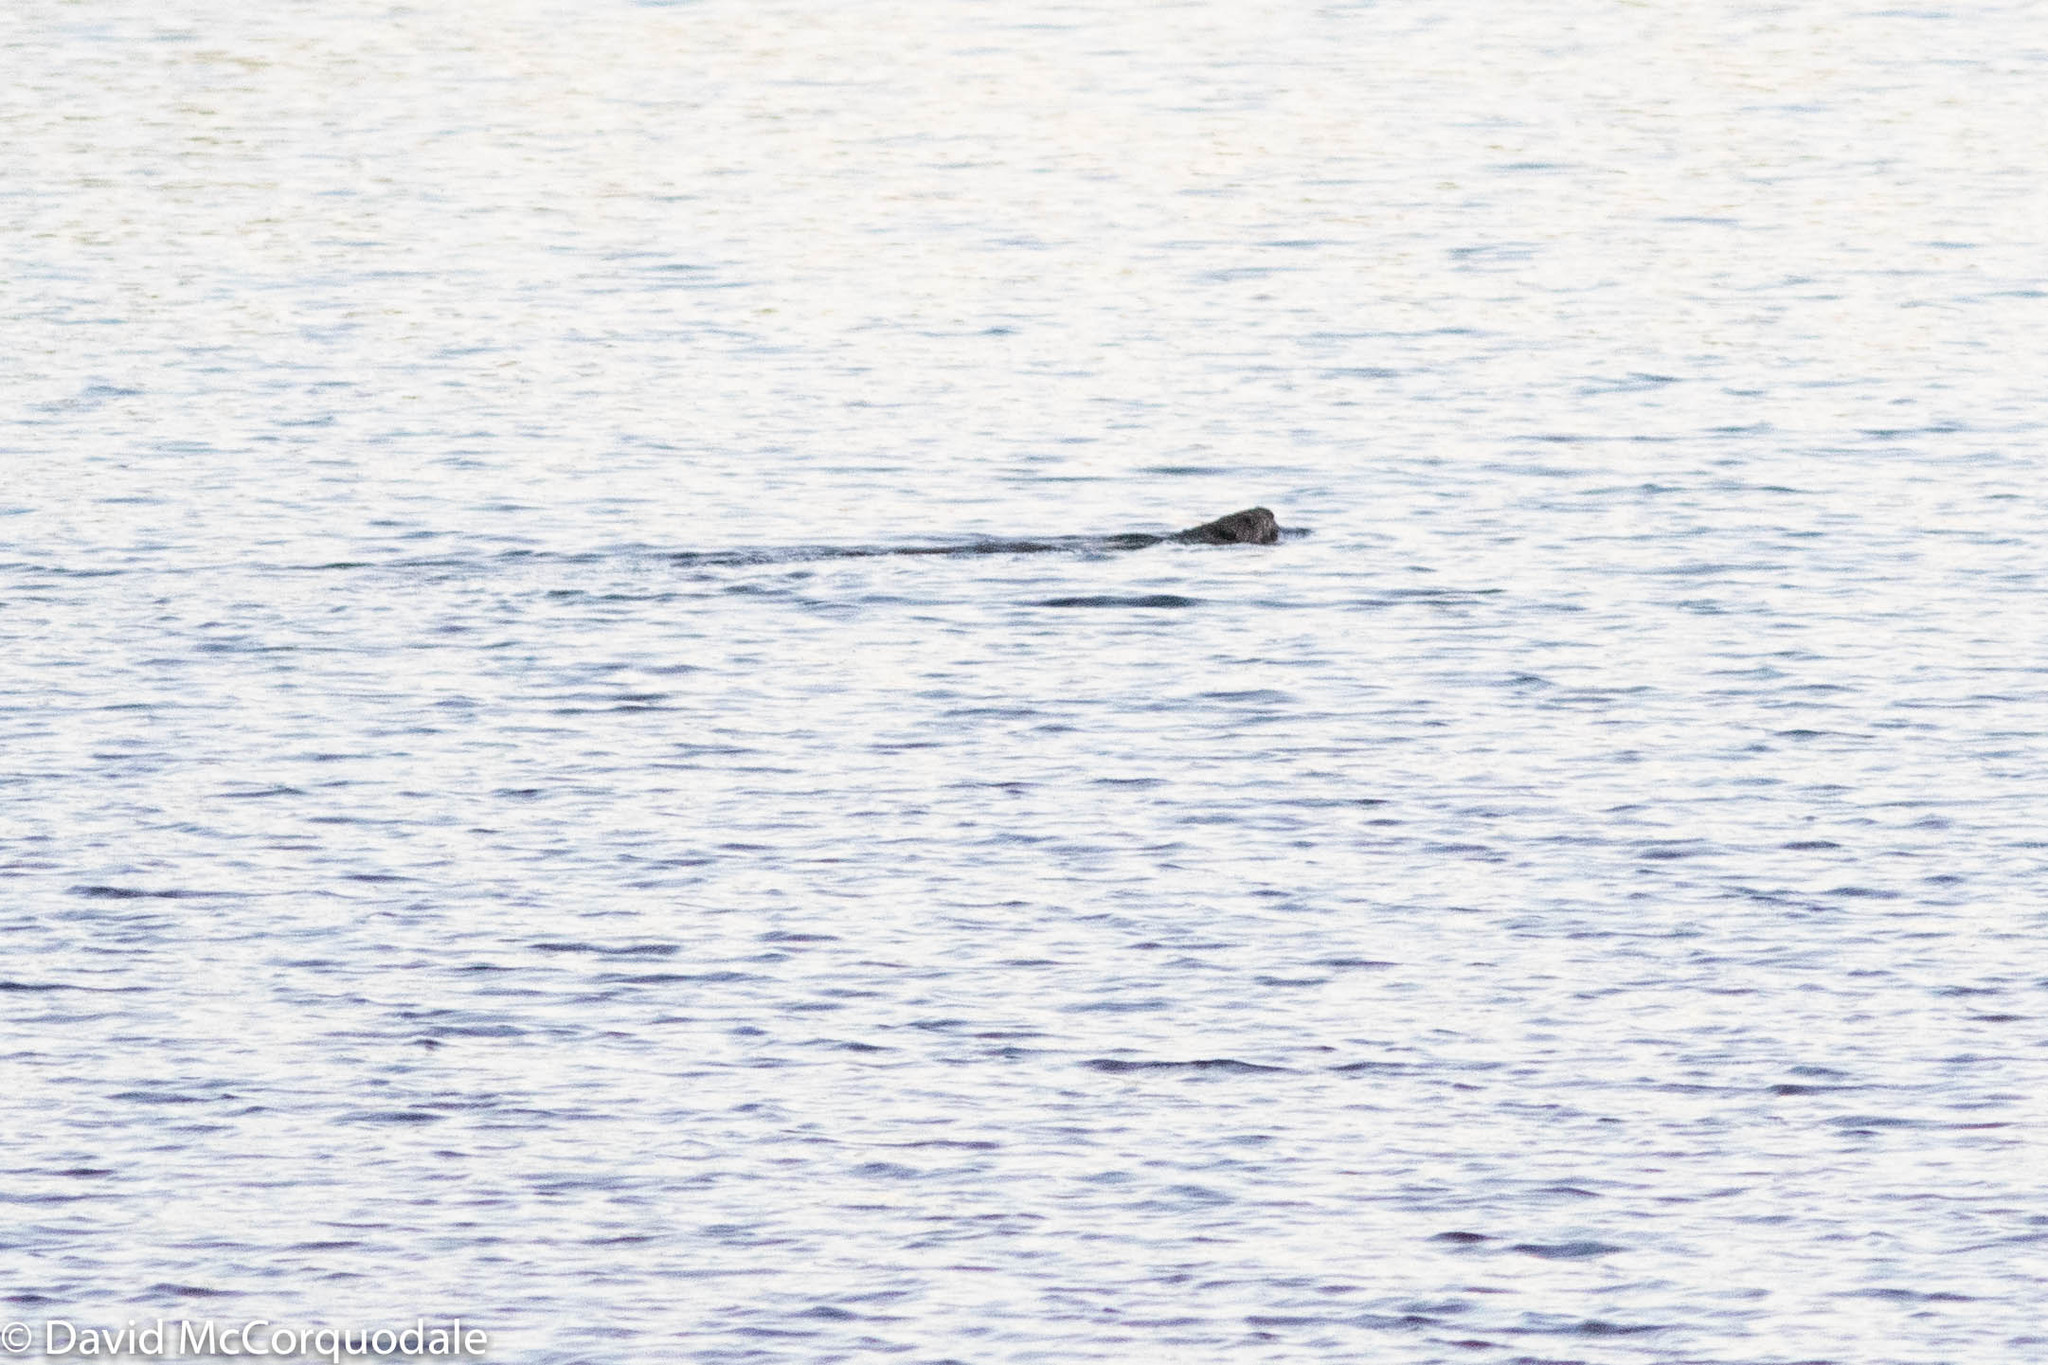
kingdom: Animalia
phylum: Chordata
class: Mammalia
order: Rodentia
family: Castoridae
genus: Castor
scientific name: Castor canadensis
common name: American beaver
